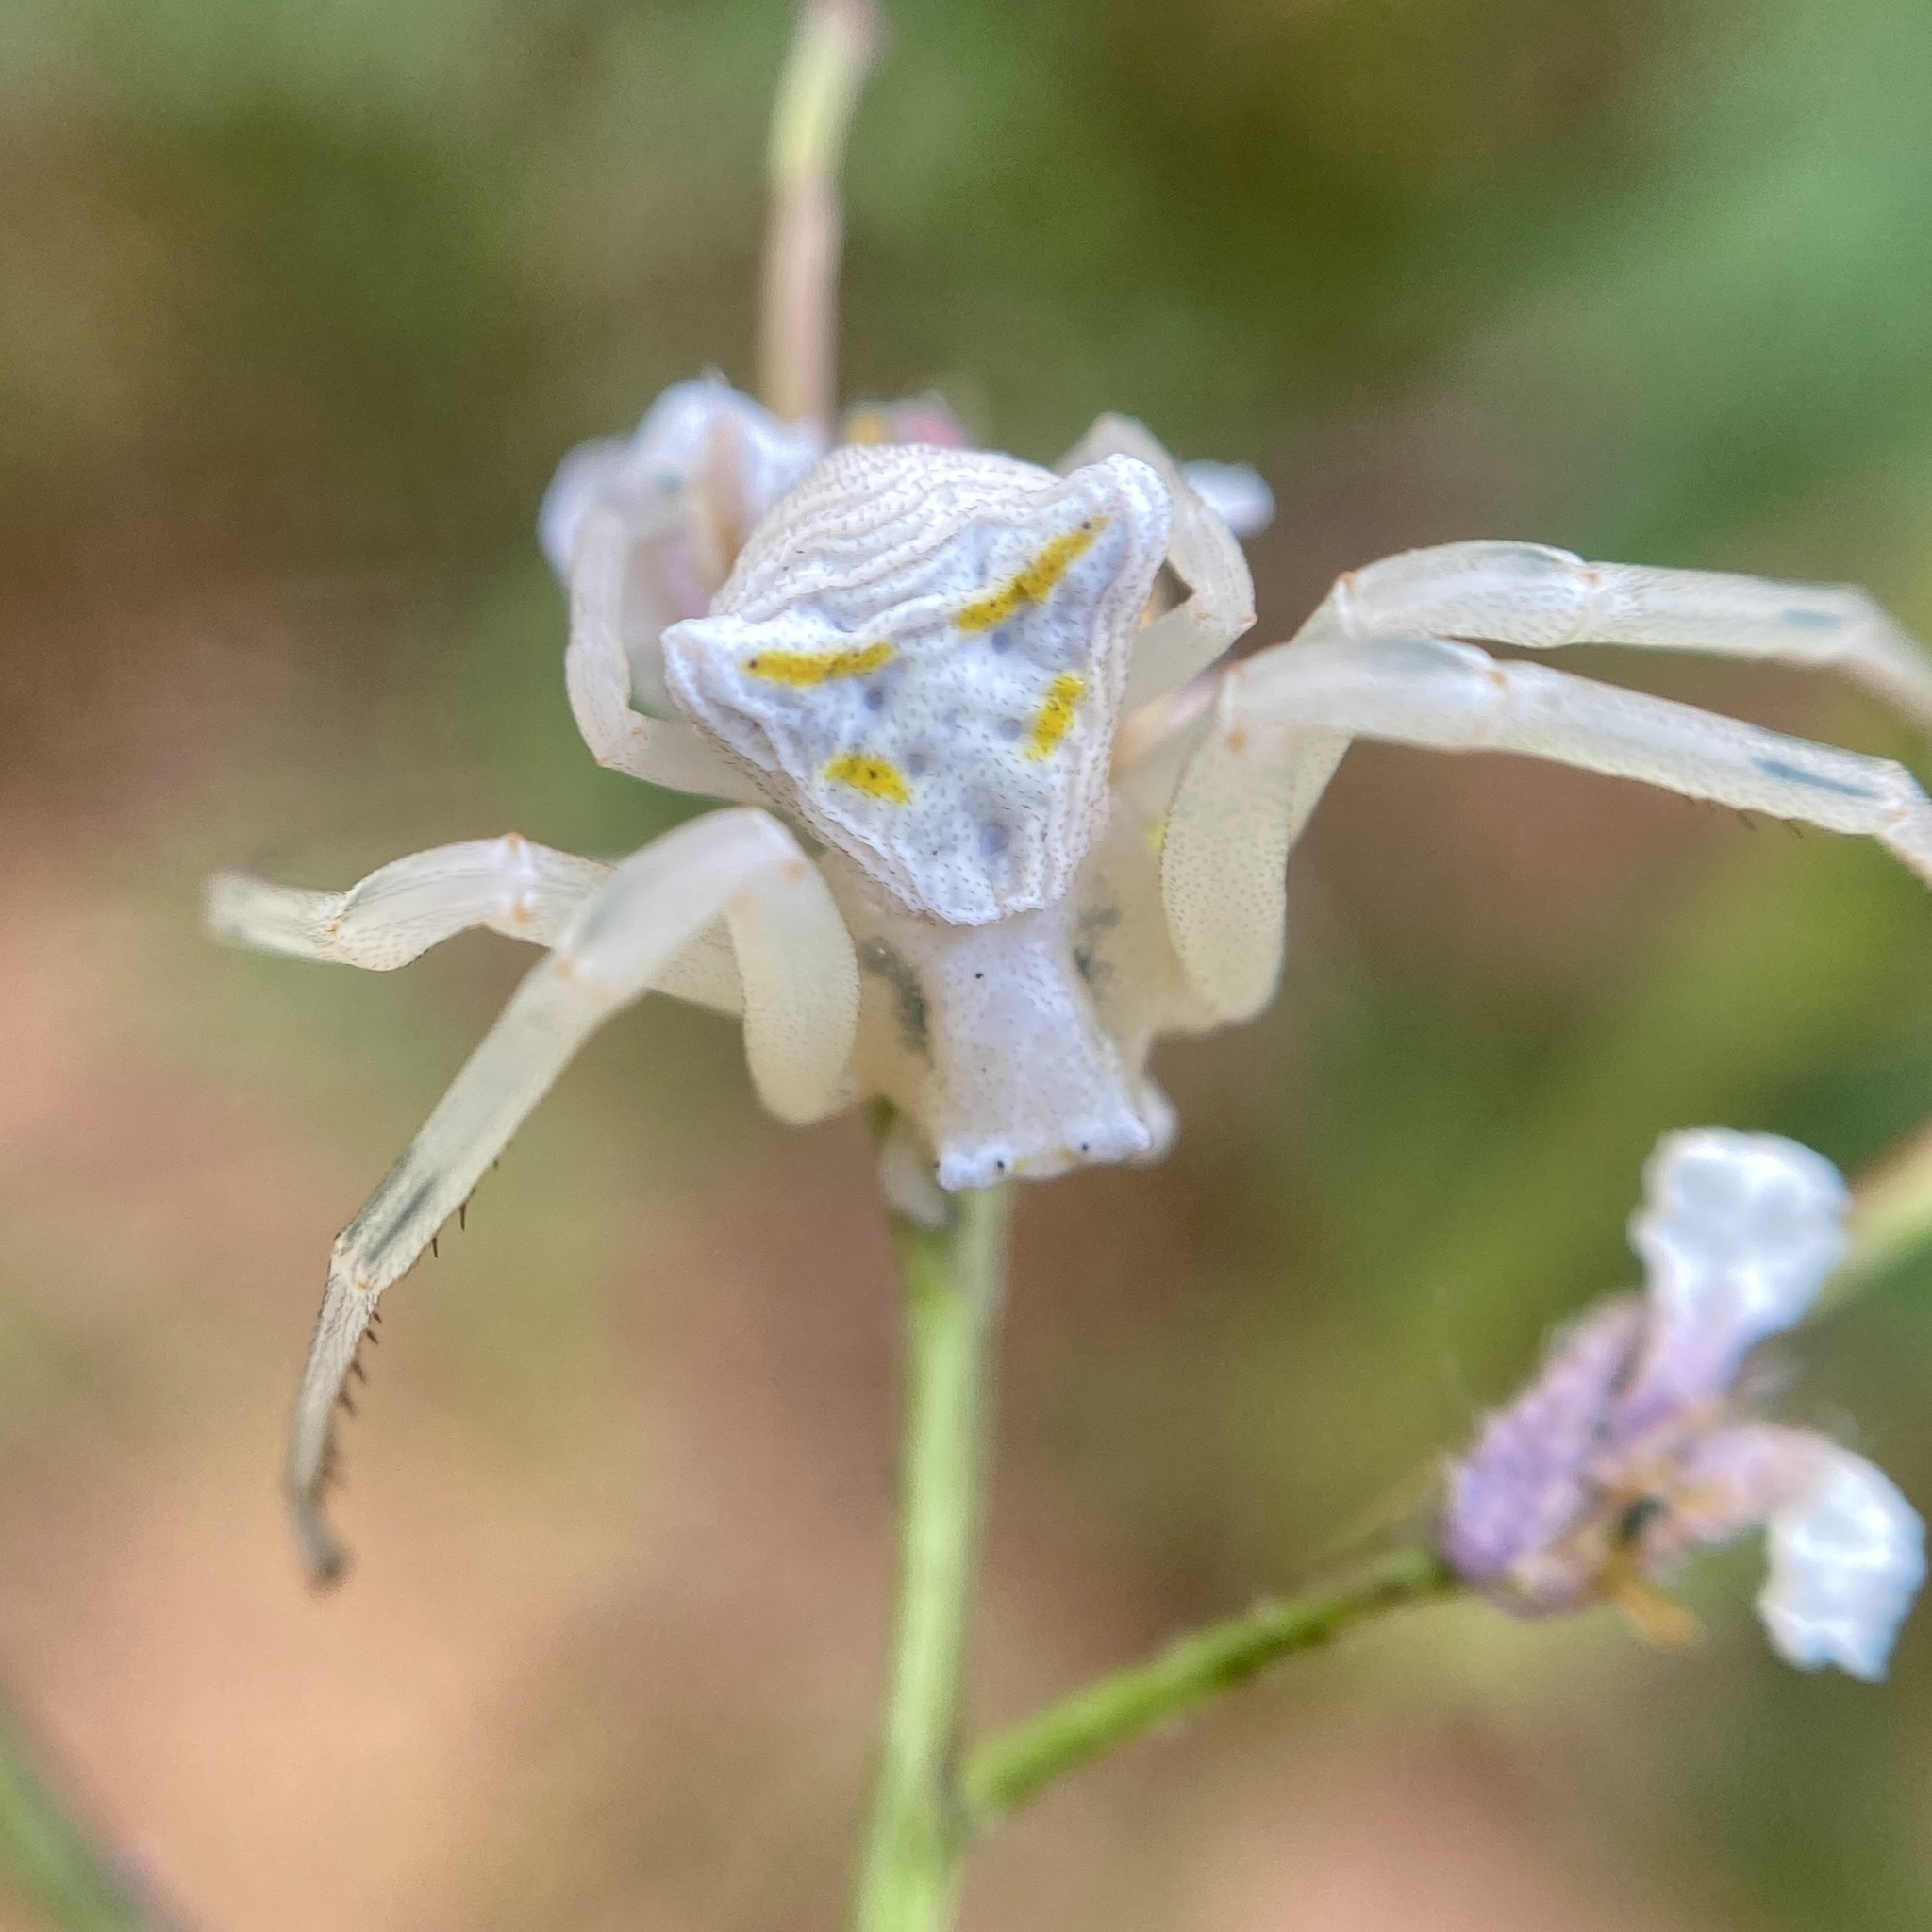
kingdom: Animalia
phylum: Arthropoda
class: Arachnida
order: Araneae
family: Thomisidae
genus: Thomisus
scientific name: Thomisus onustus
